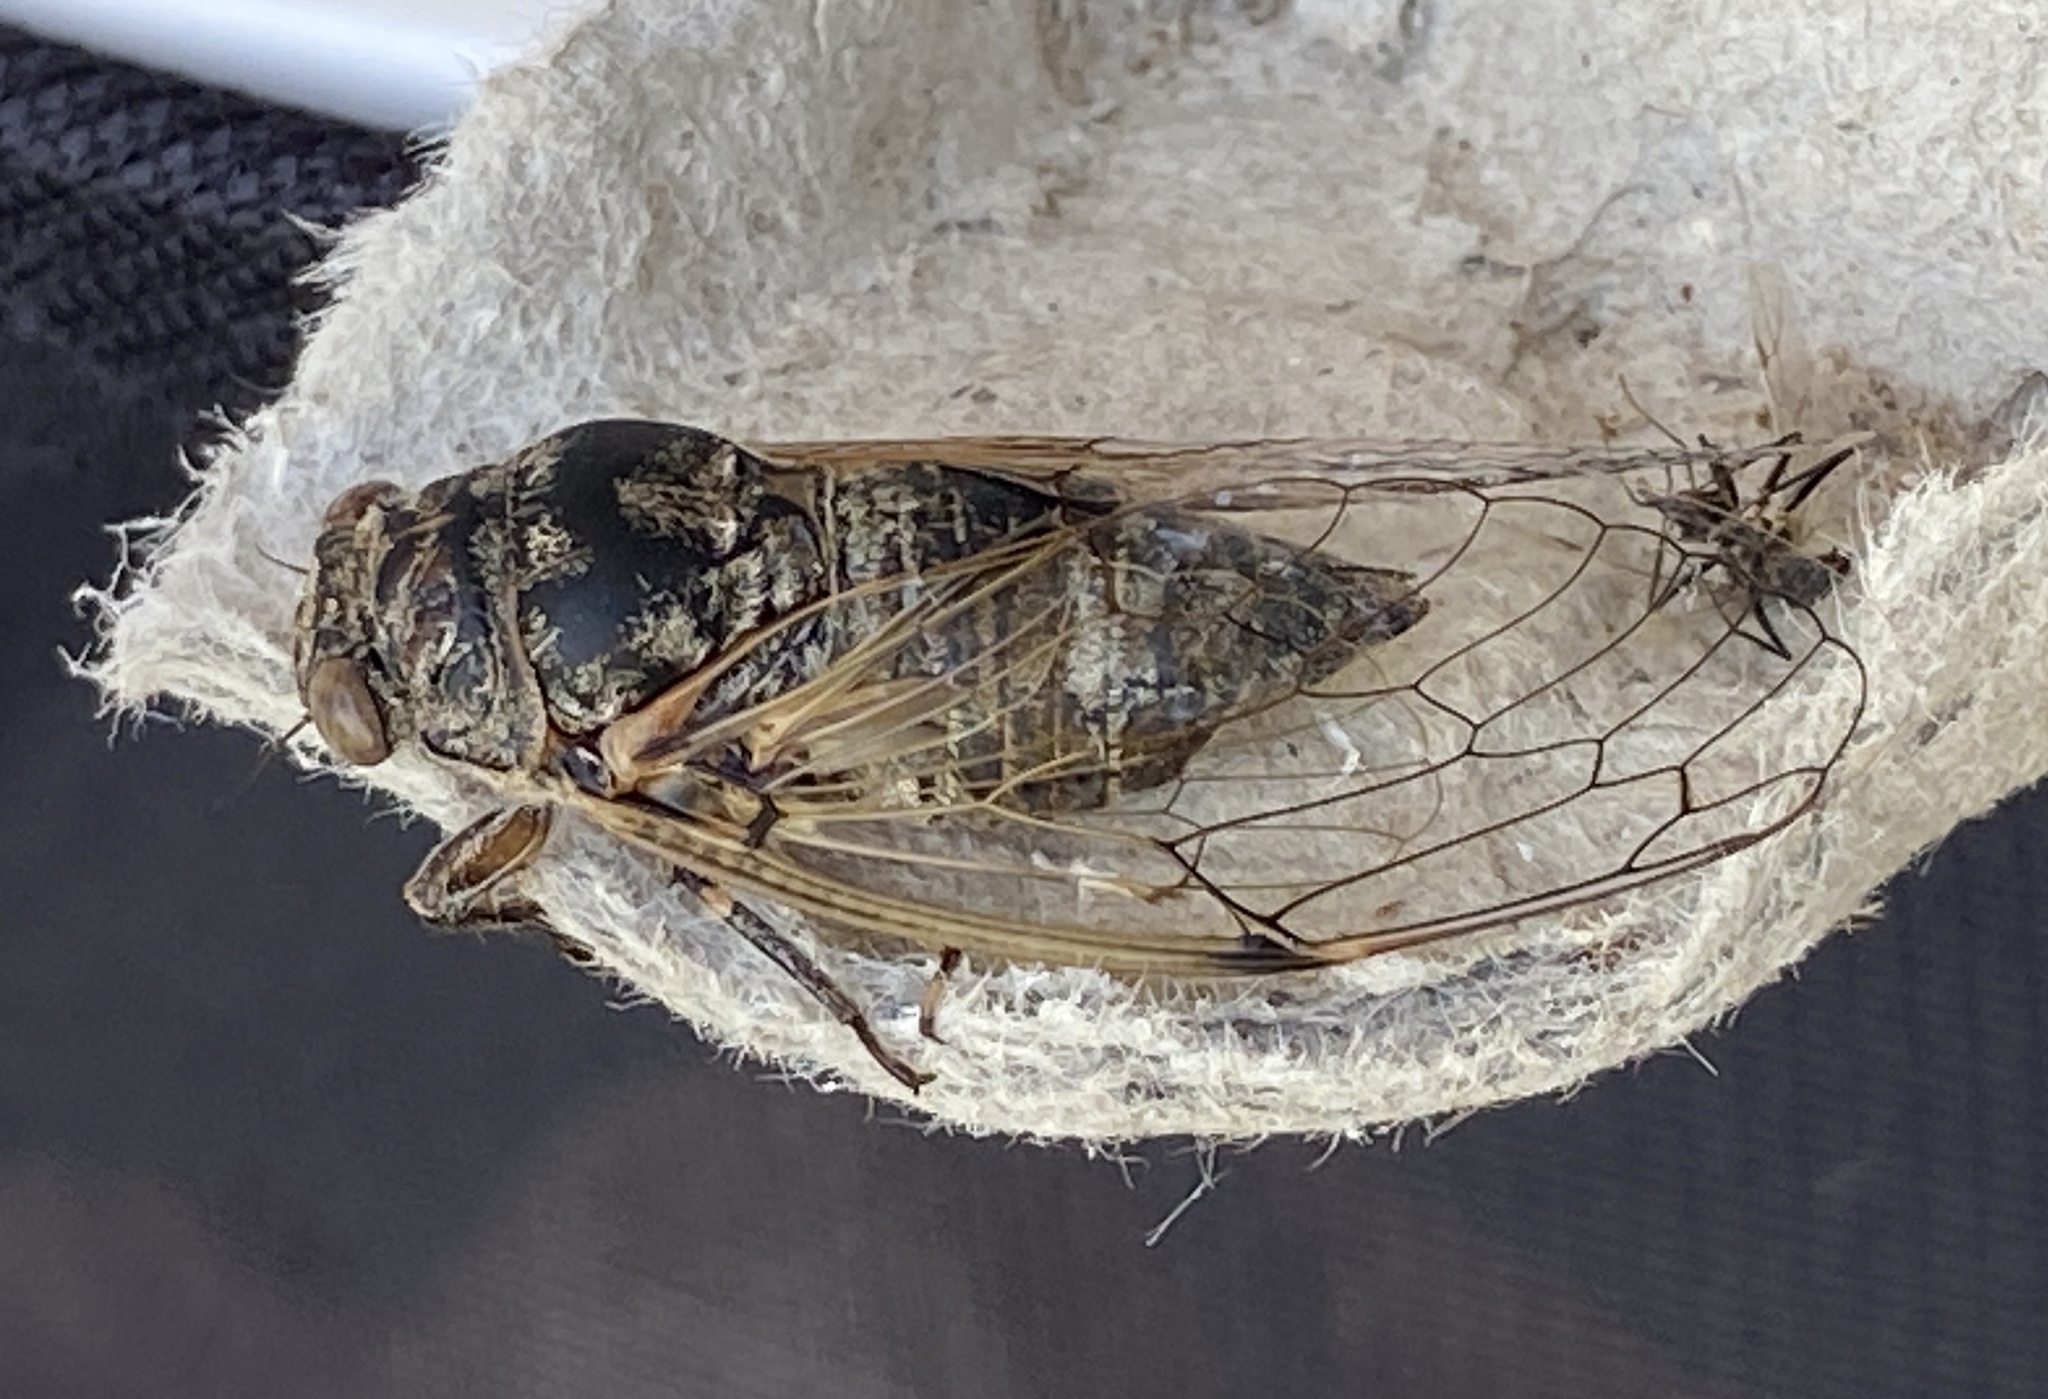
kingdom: Animalia
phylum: Arthropoda
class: Insecta
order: Hemiptera
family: Cicadidae
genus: Cicadatra
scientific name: Cicadatra atra
